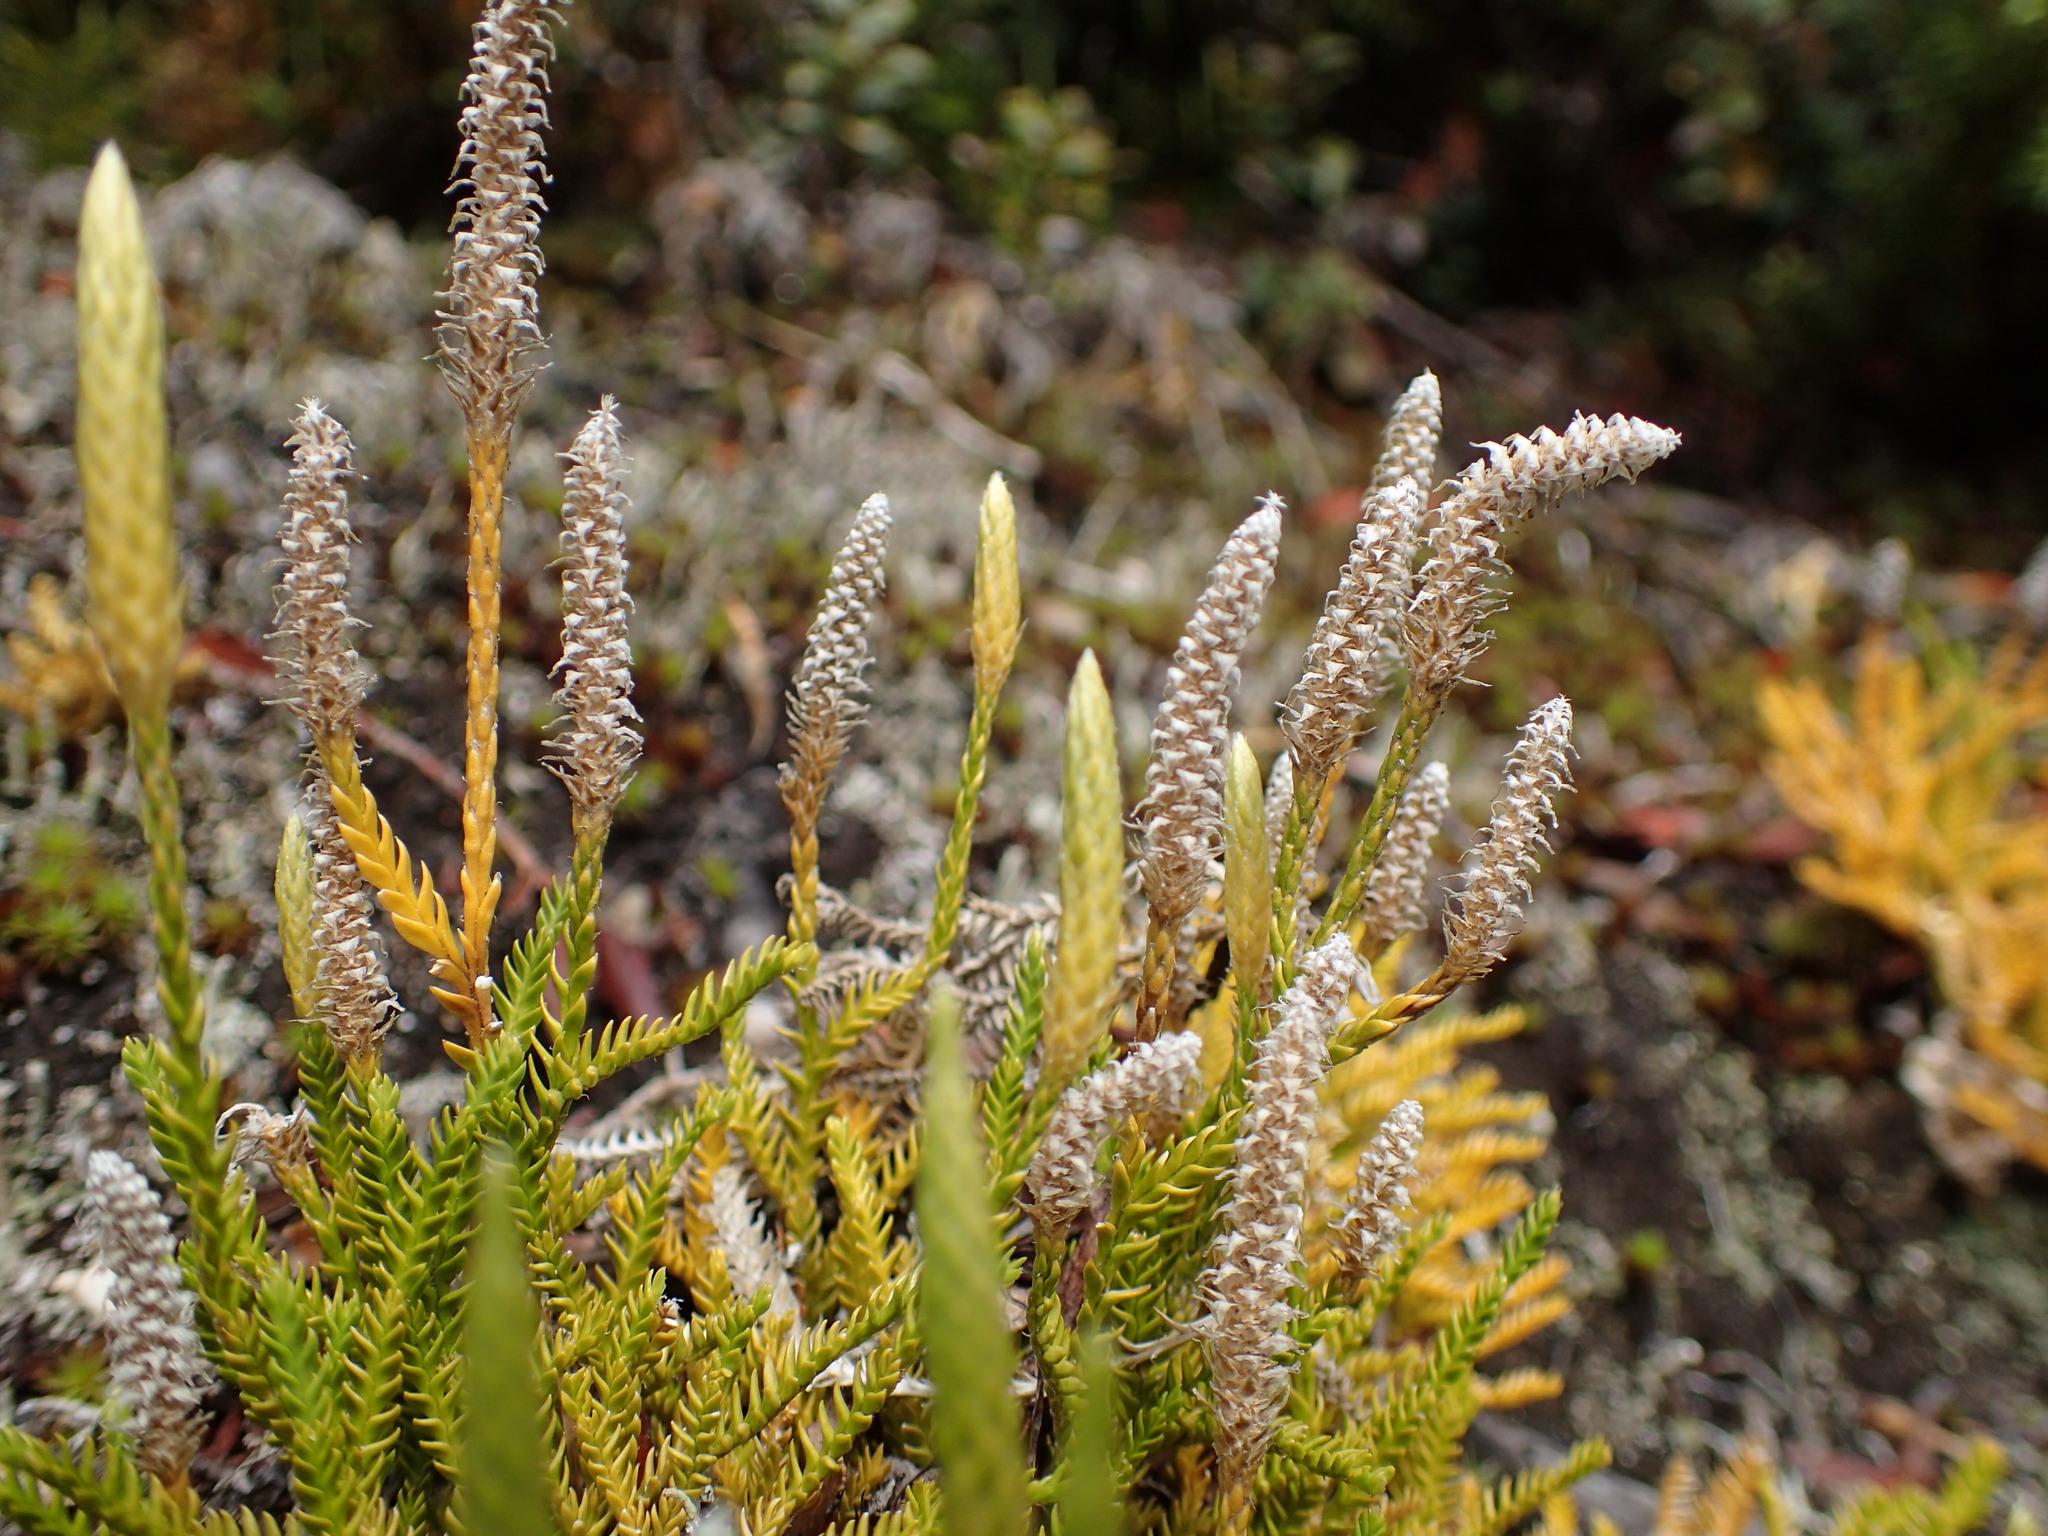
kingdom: Plantae
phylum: Tracheophyta
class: Lycopodiopsida
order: Lycopodiales
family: Lycopodiaceae
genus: Diphasium
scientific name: Diphasium scariosum
